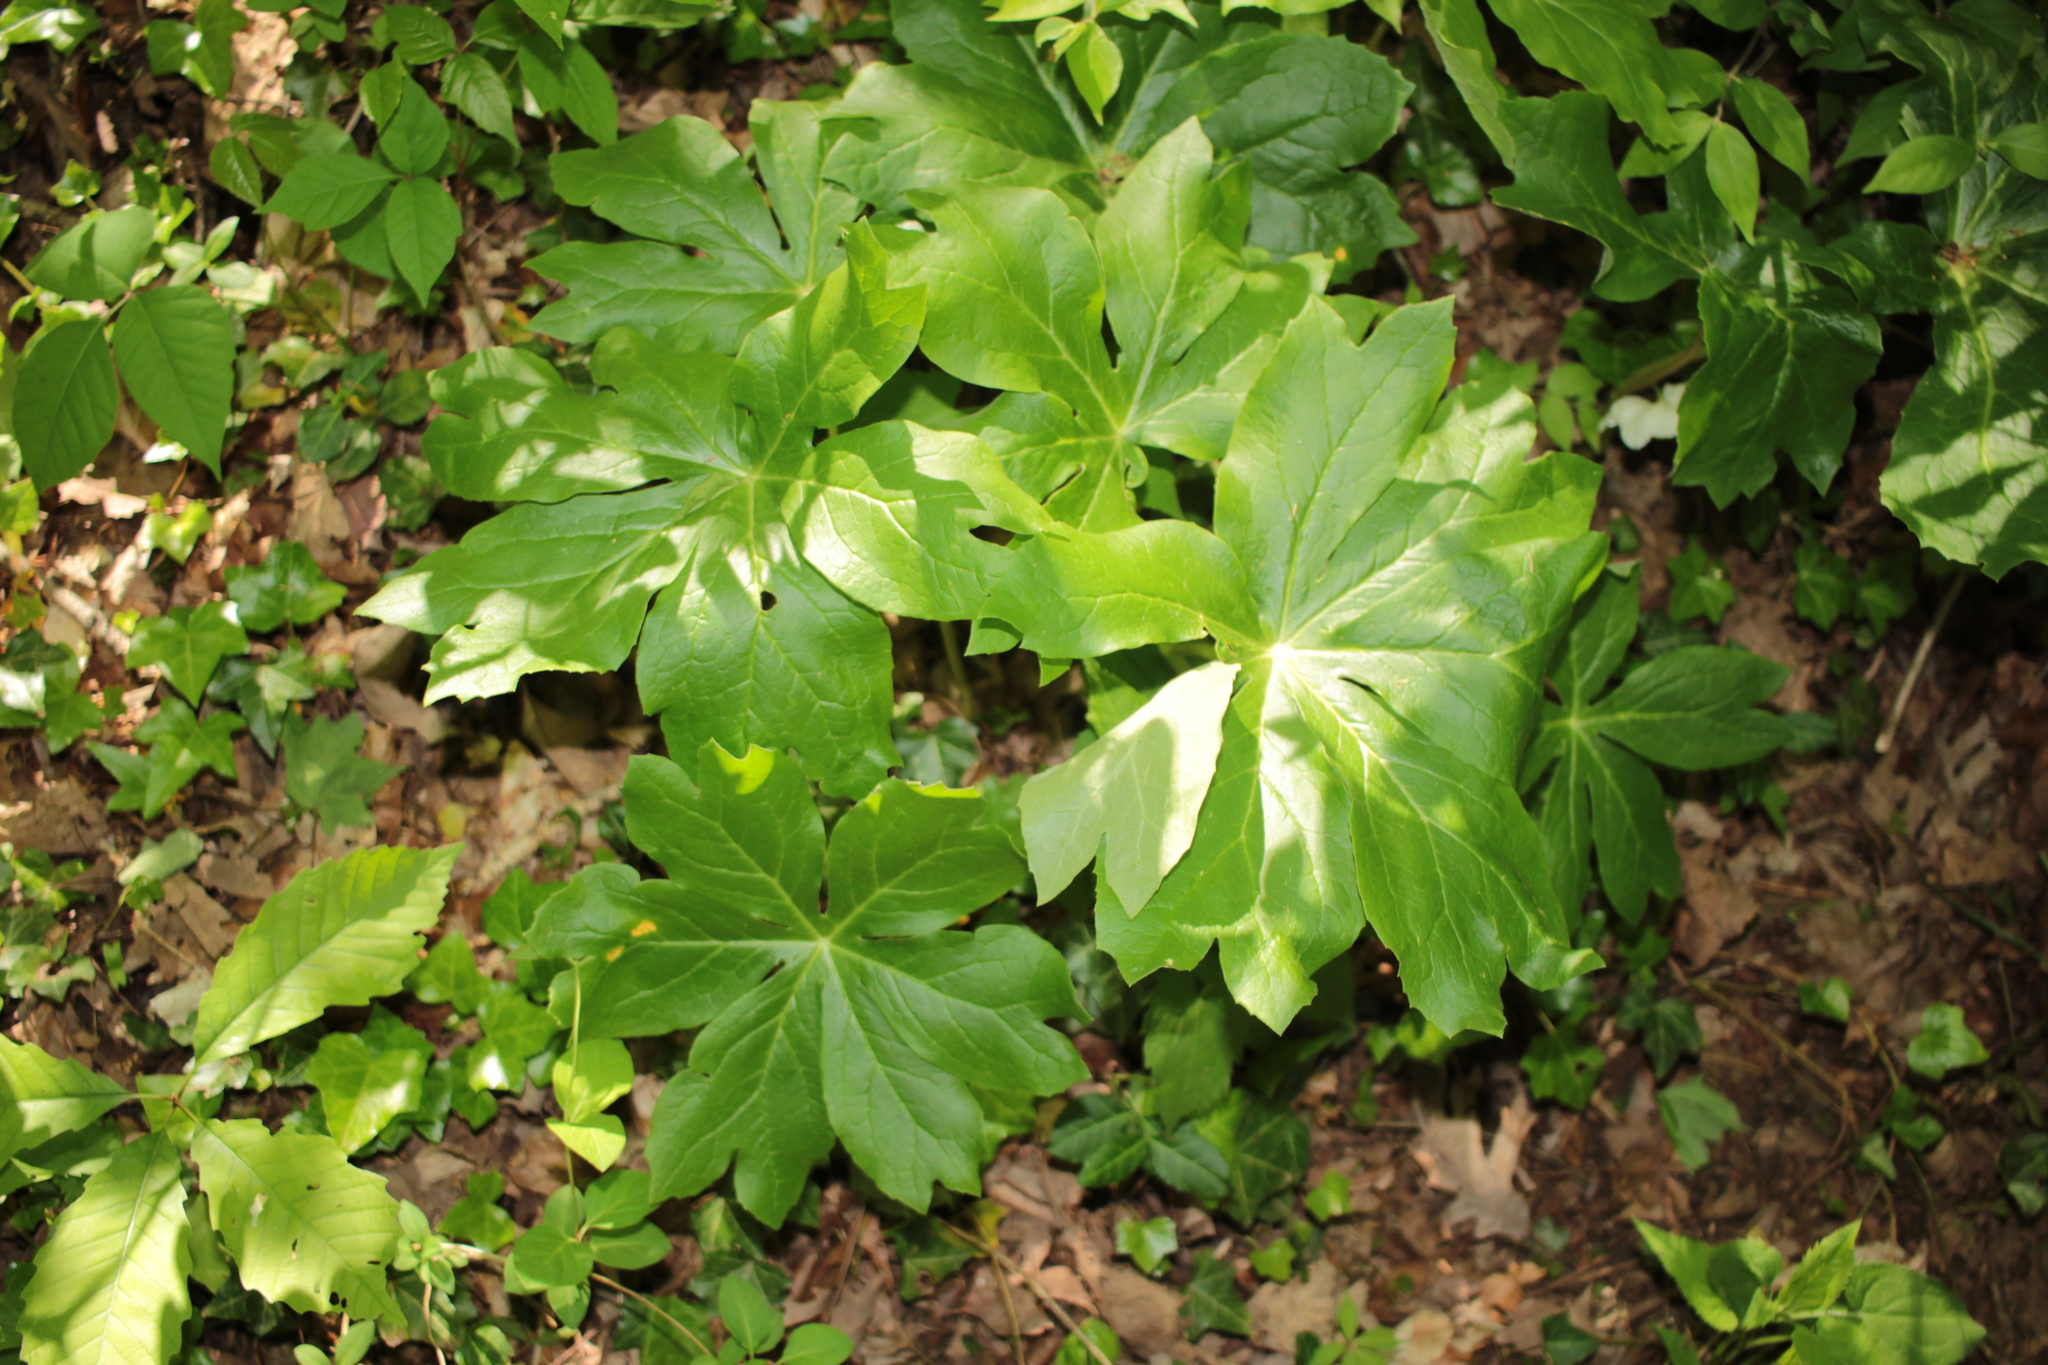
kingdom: Plantae
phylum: Tracheophyta
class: Magnoliopsida
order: Ranunculales
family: Berberidaceae
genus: Podophyllum
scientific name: Podophyllum peltatum
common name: Wild mandrake
